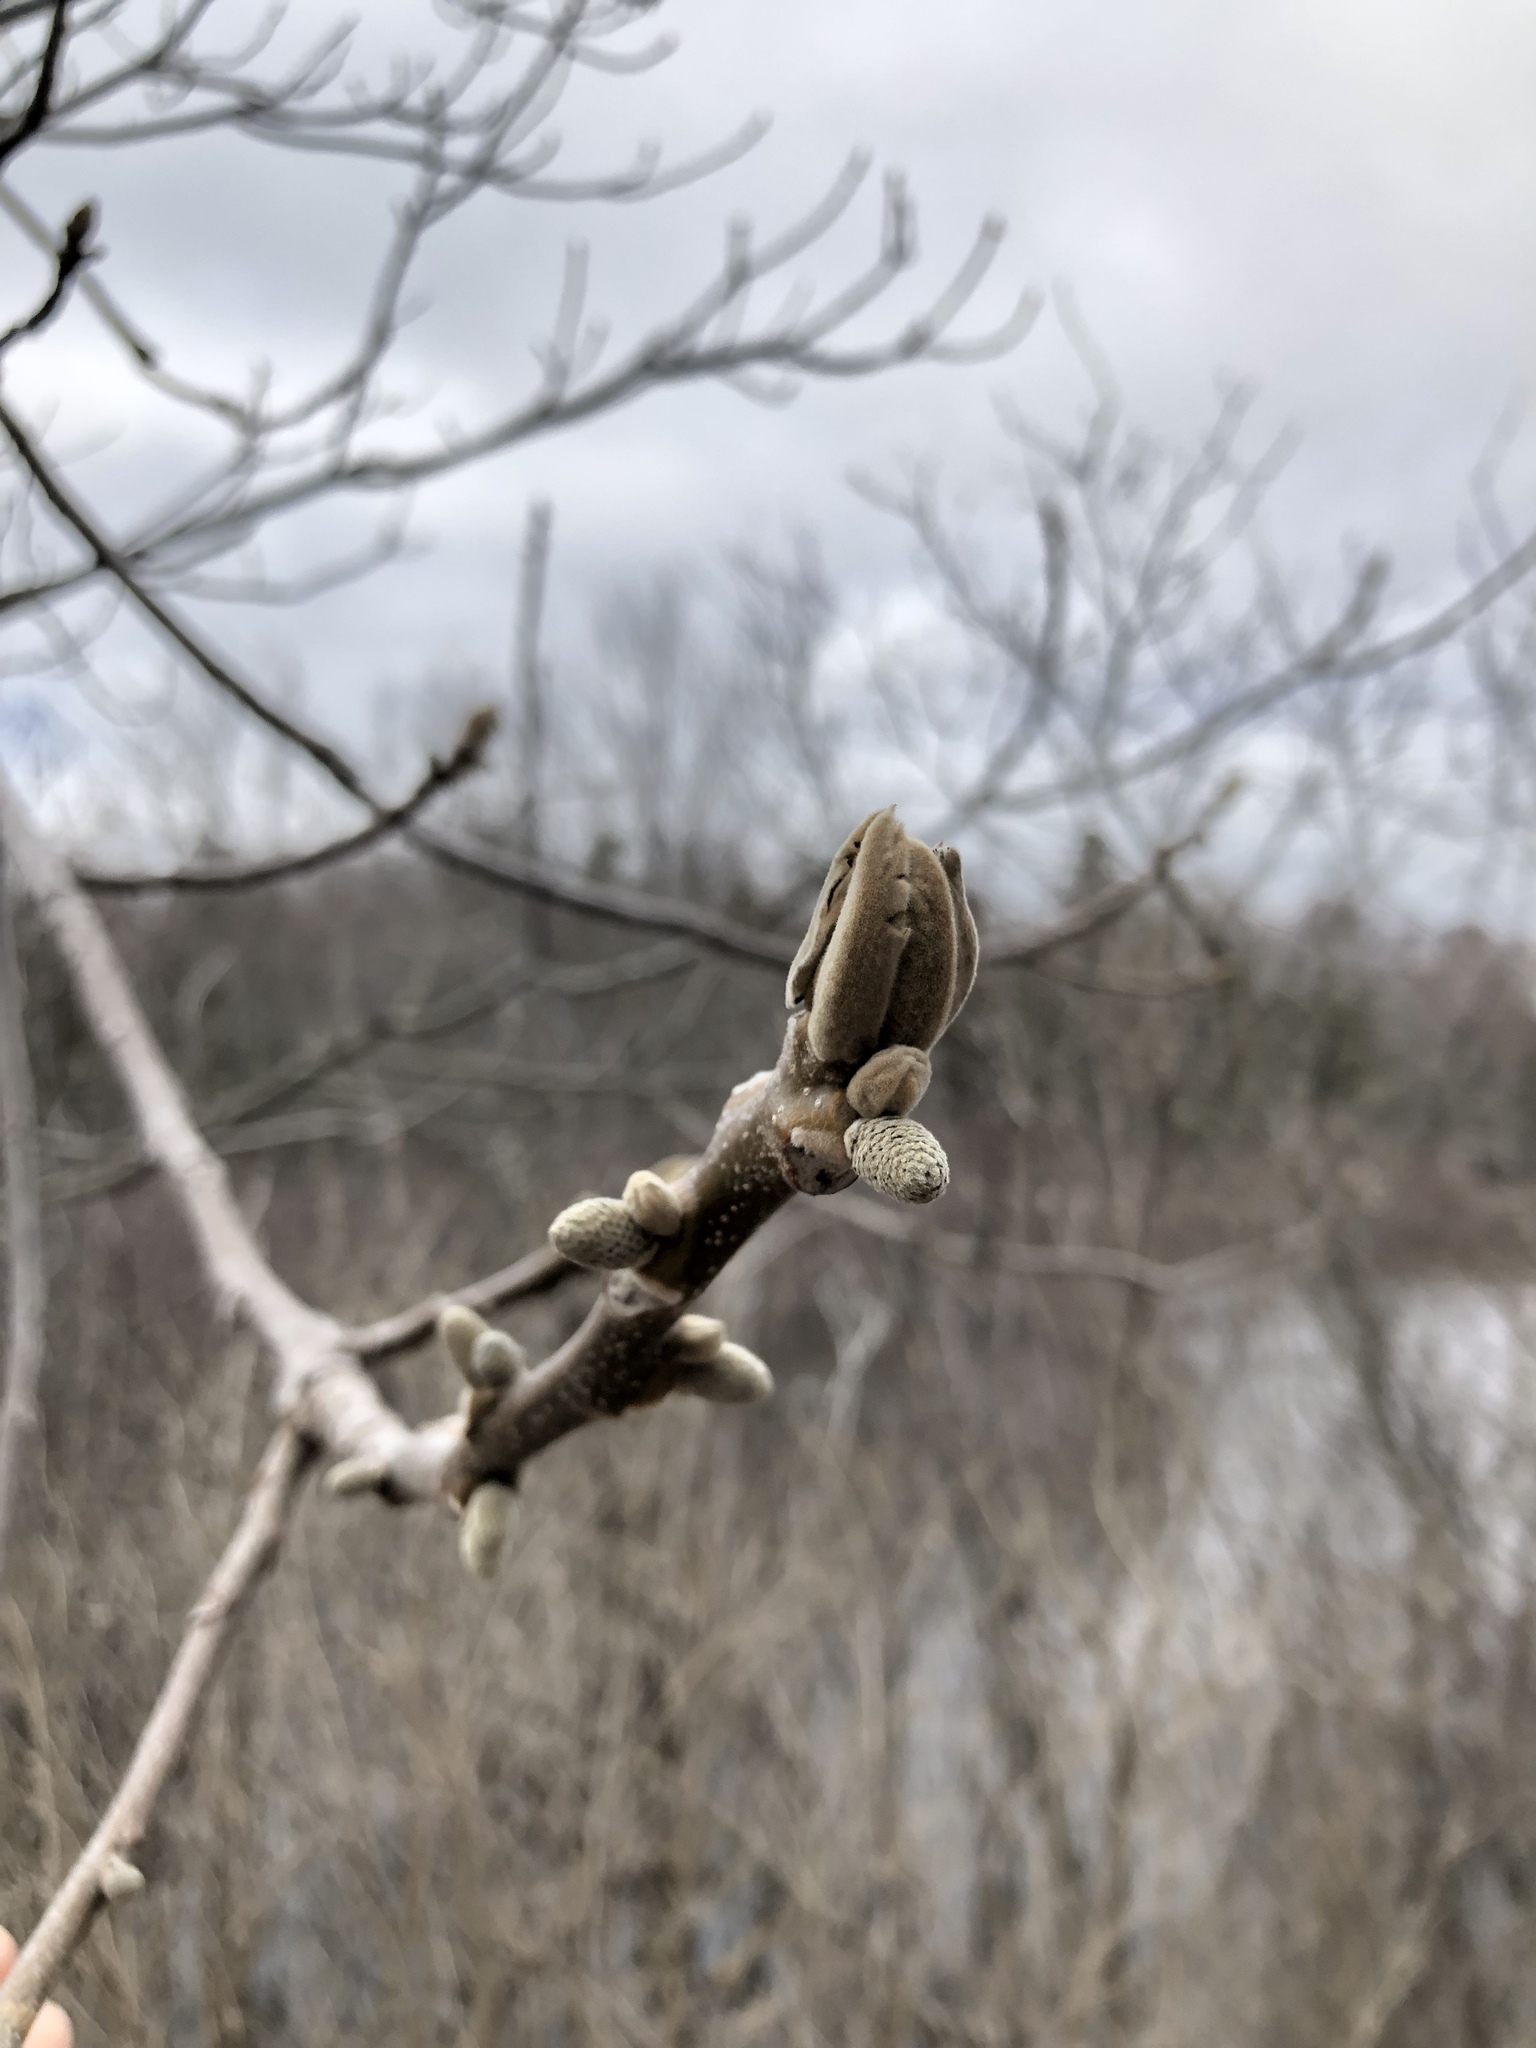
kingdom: Plantae
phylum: Tracheophyta
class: Magnoliopsida
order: Fagales
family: Juglandaceae
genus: Juglans
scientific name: Juglans cinerea
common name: Butternut
